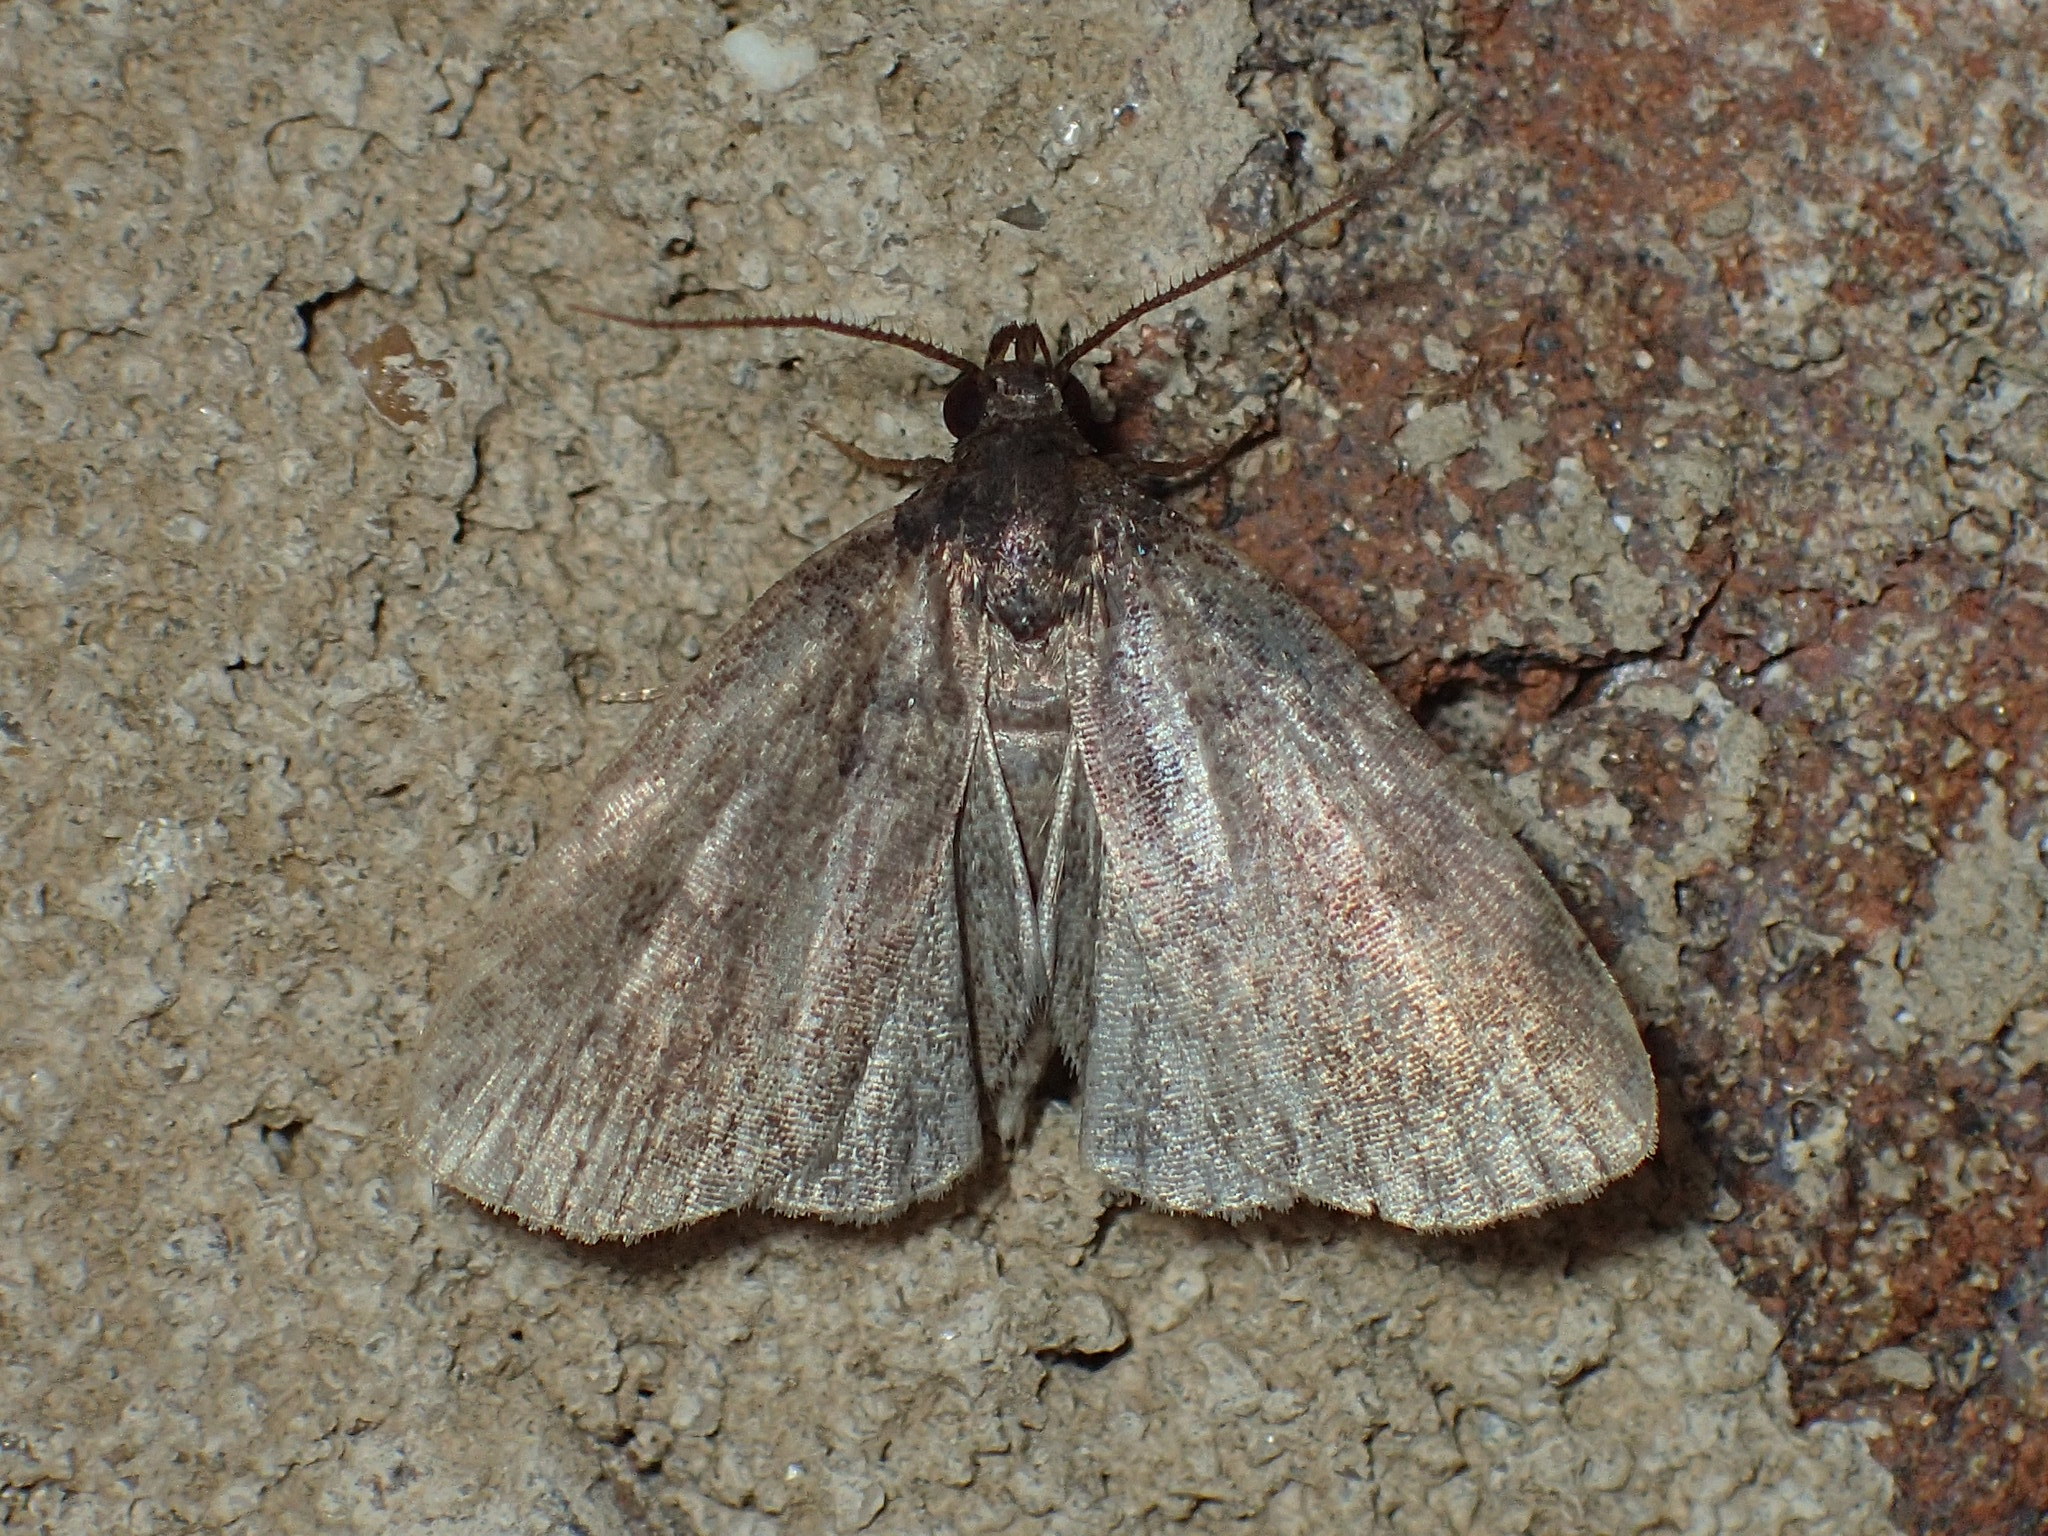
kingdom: Animalia
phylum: Arthropoda
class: Insecta
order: Lepidoptera
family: Erebidae
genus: Idia
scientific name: Idia rotundalis
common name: Rotund idia moth
